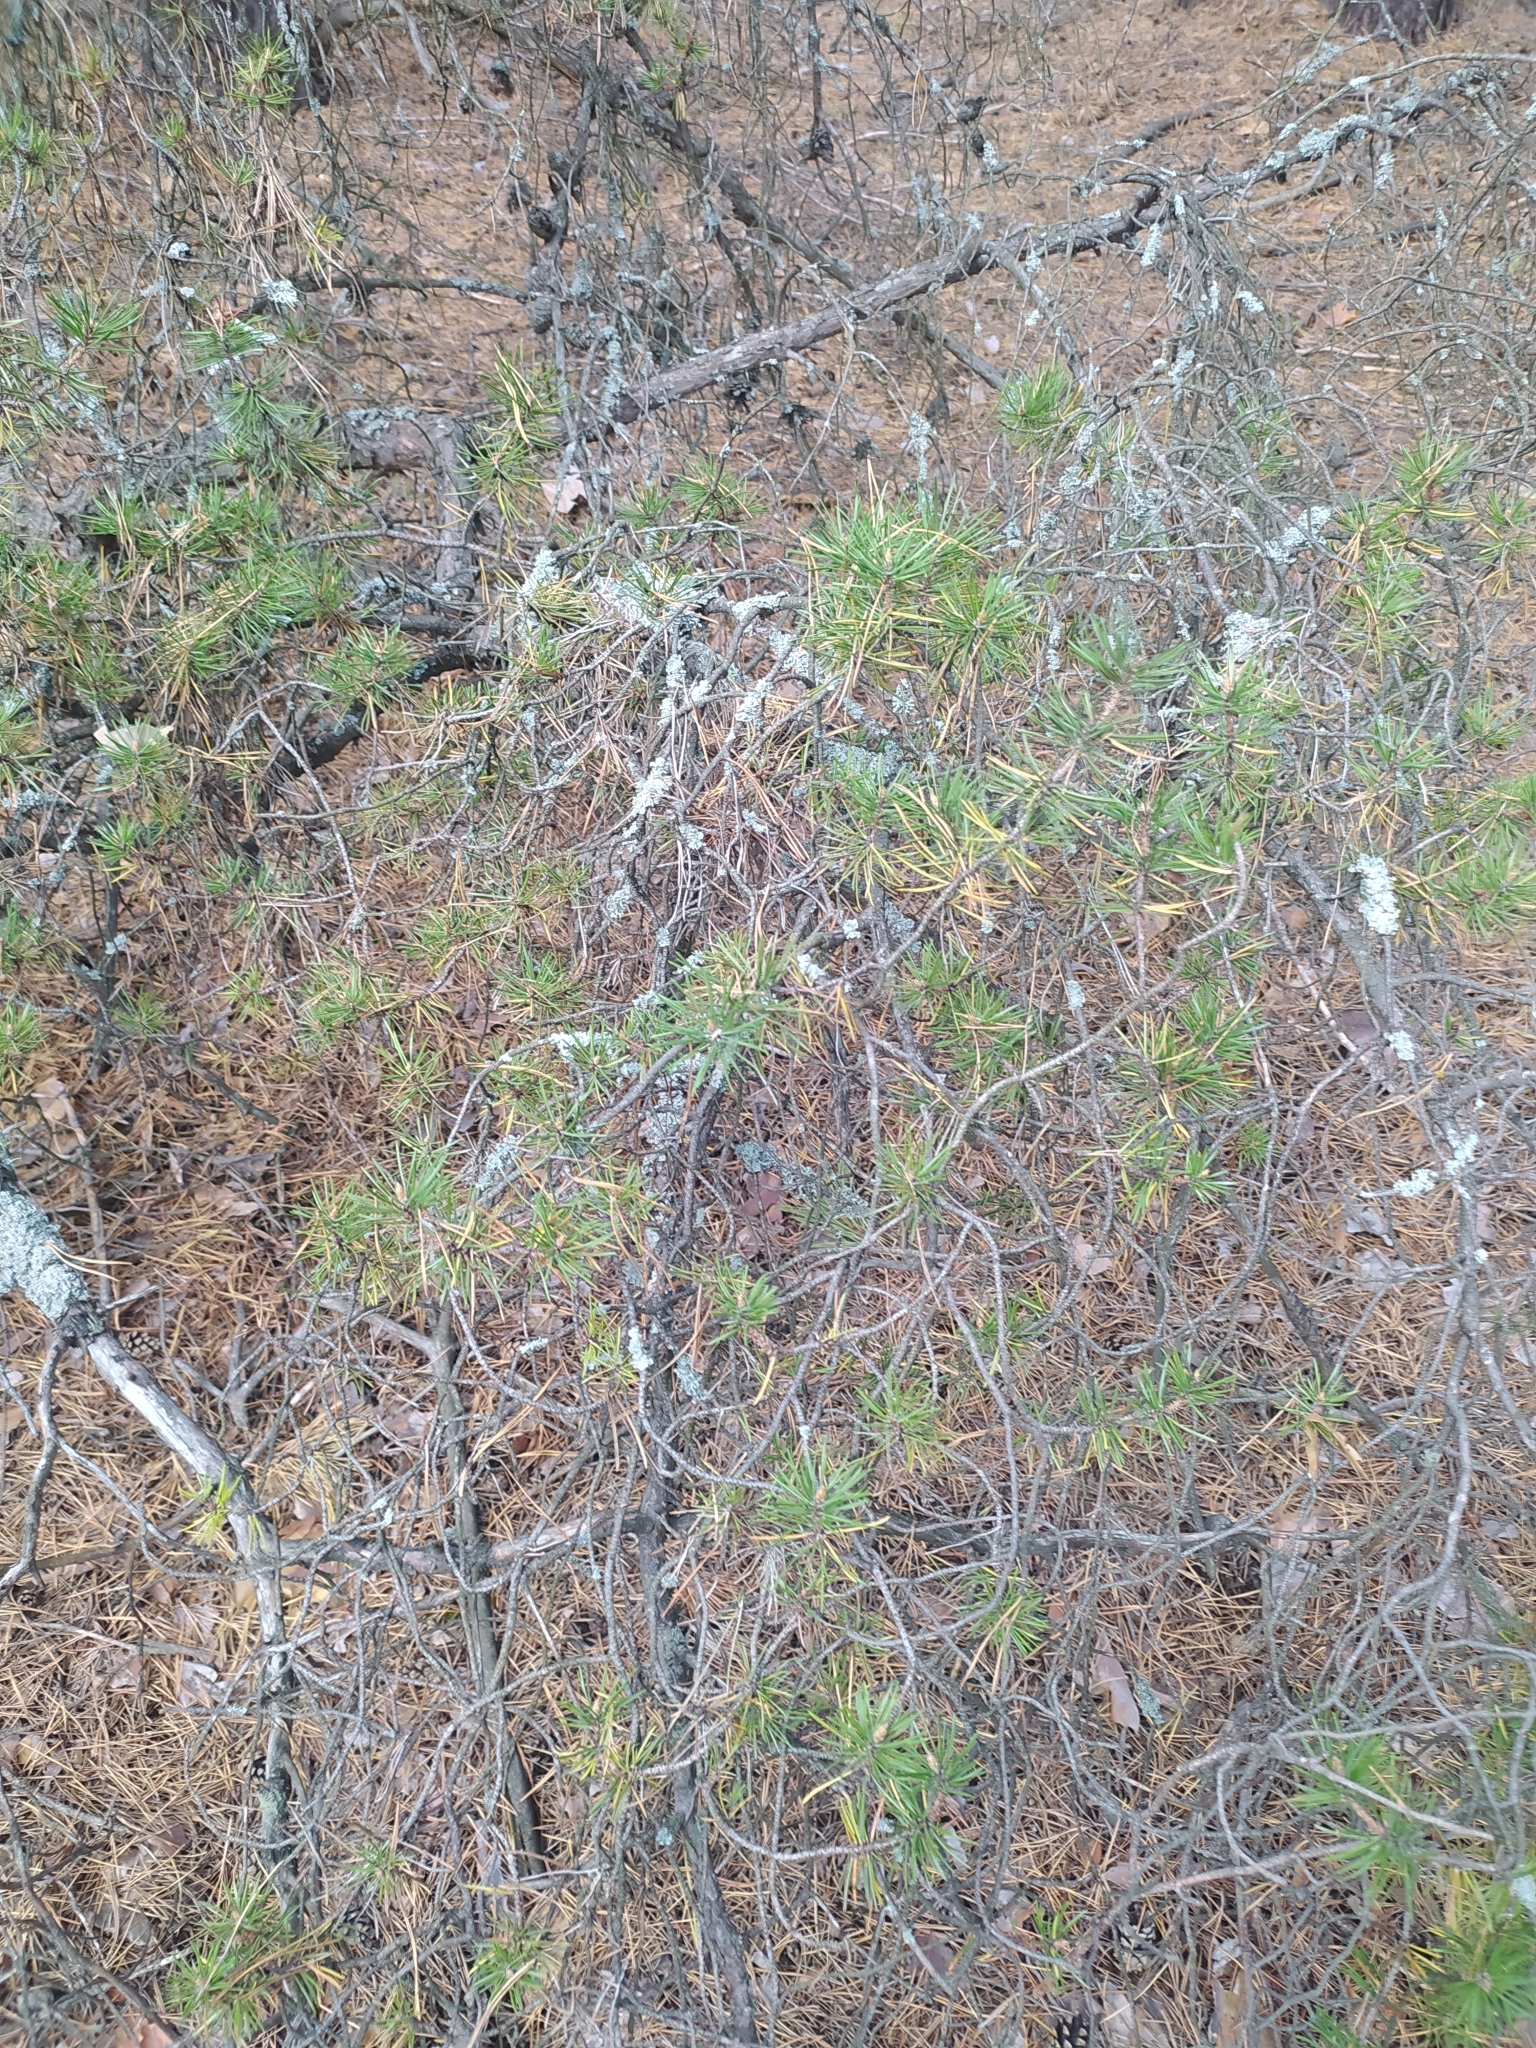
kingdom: Plantae
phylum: Tracheophyta
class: Pinopsida
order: Pinales
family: Pinaceae
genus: Pinus
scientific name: Pinus sylvestris
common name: Scots pine
